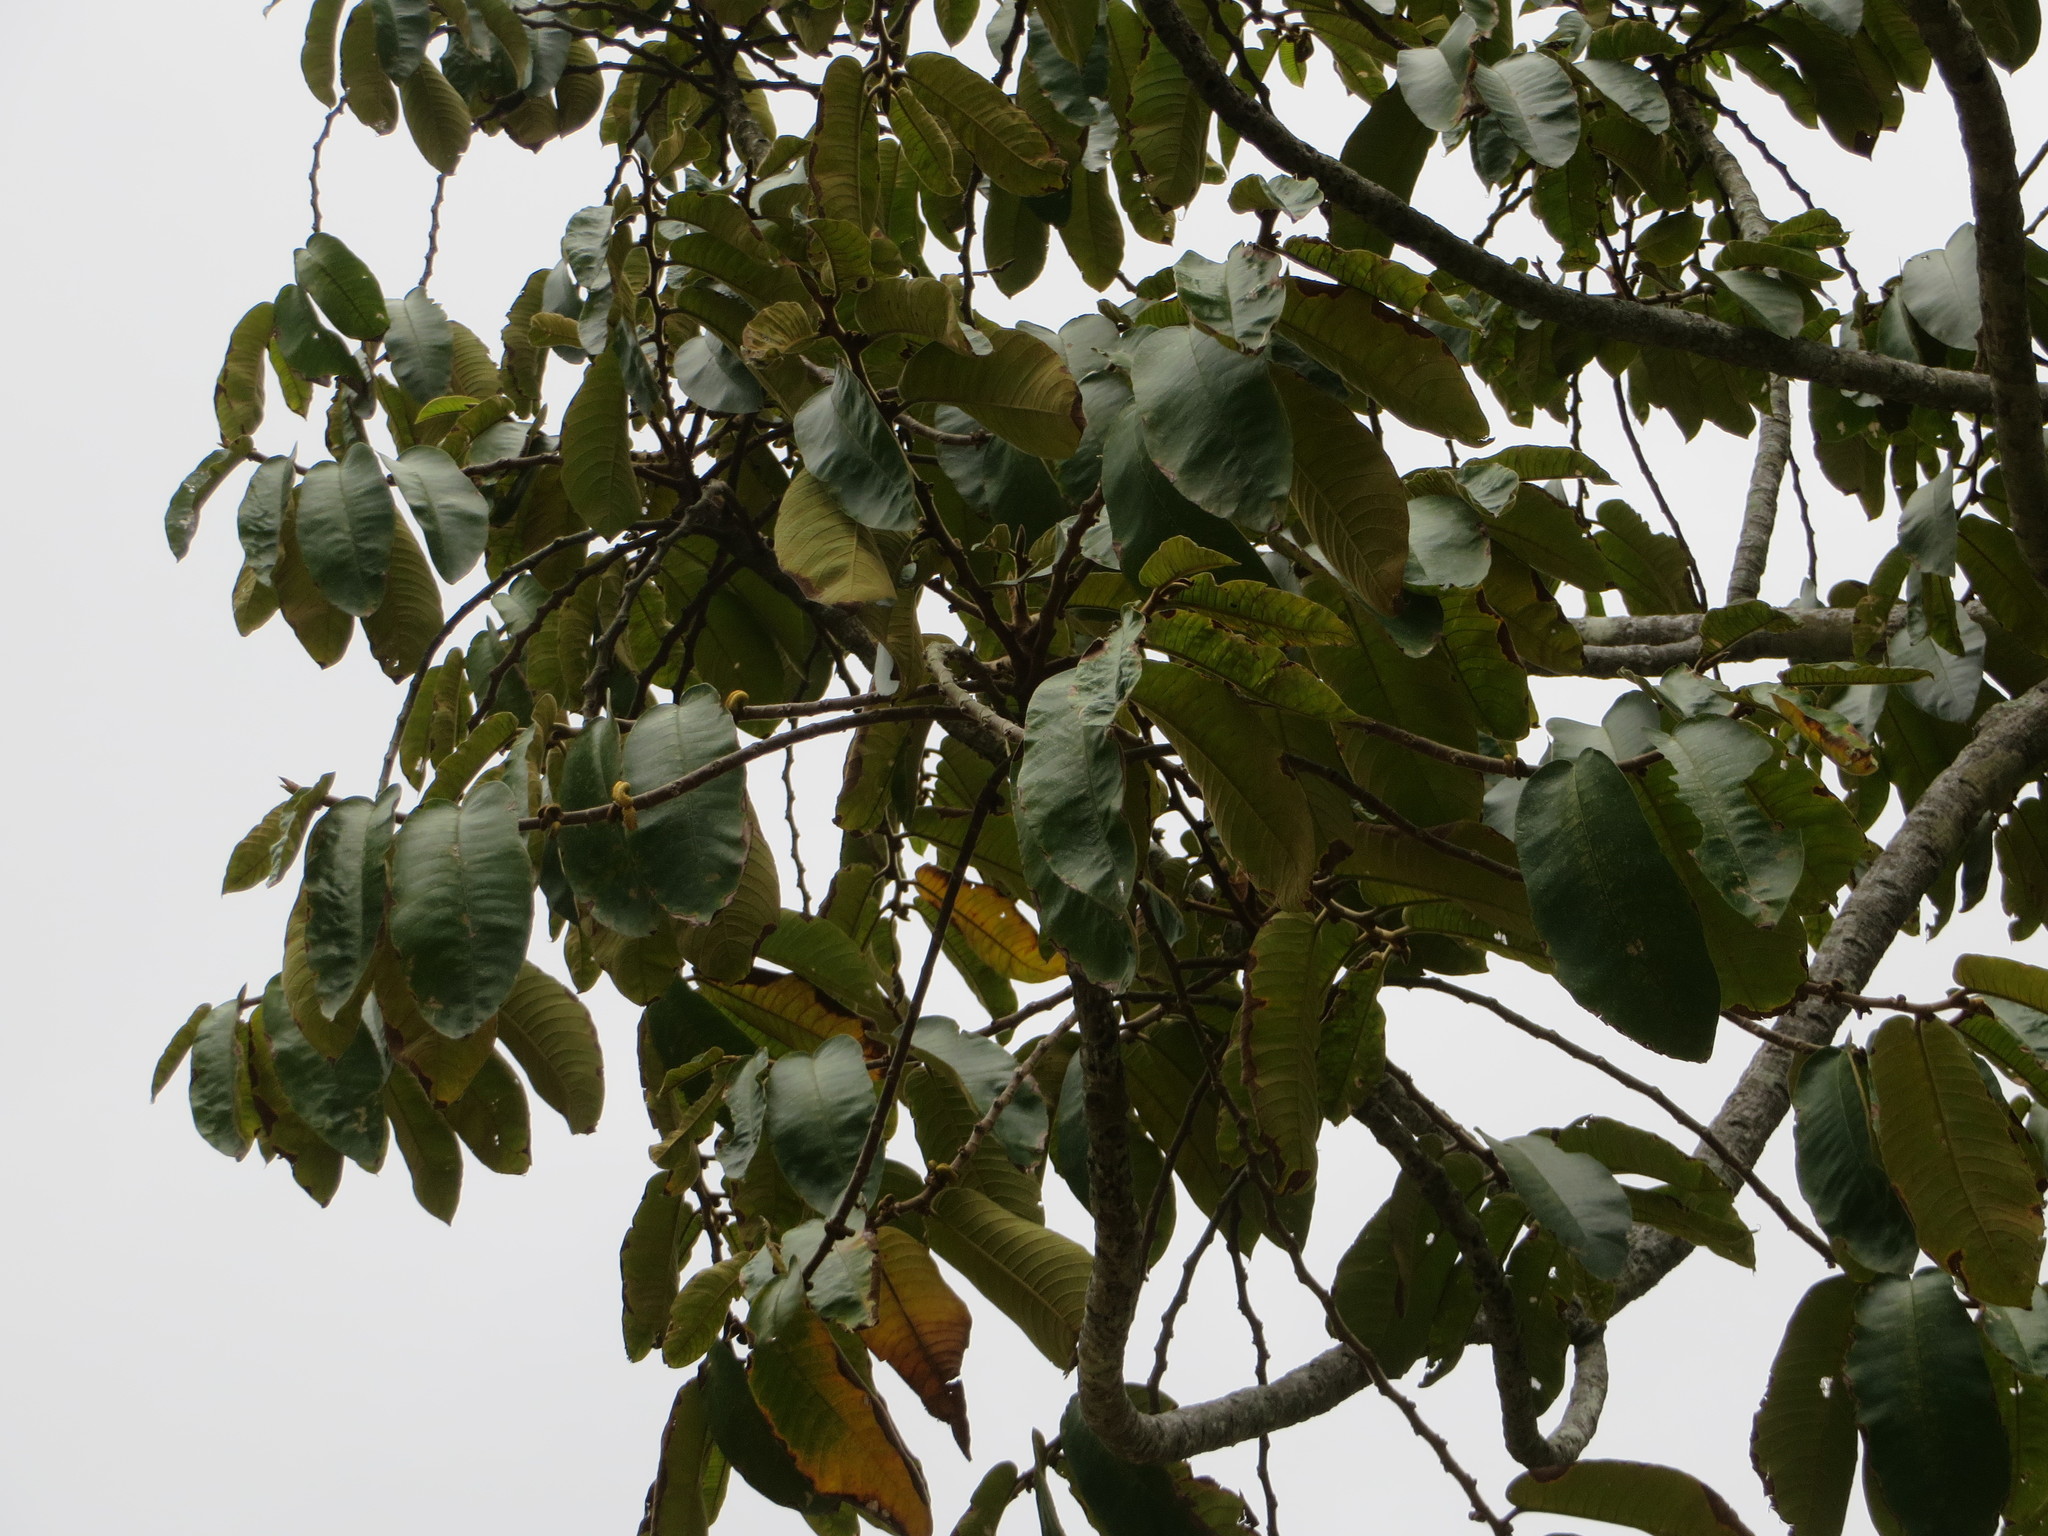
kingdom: Plantae
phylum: Tracheophyta
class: Magnoliopsida
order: Rosales
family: Moraceae
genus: Castilla
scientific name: Castilla elastica
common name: Castilla rubber
